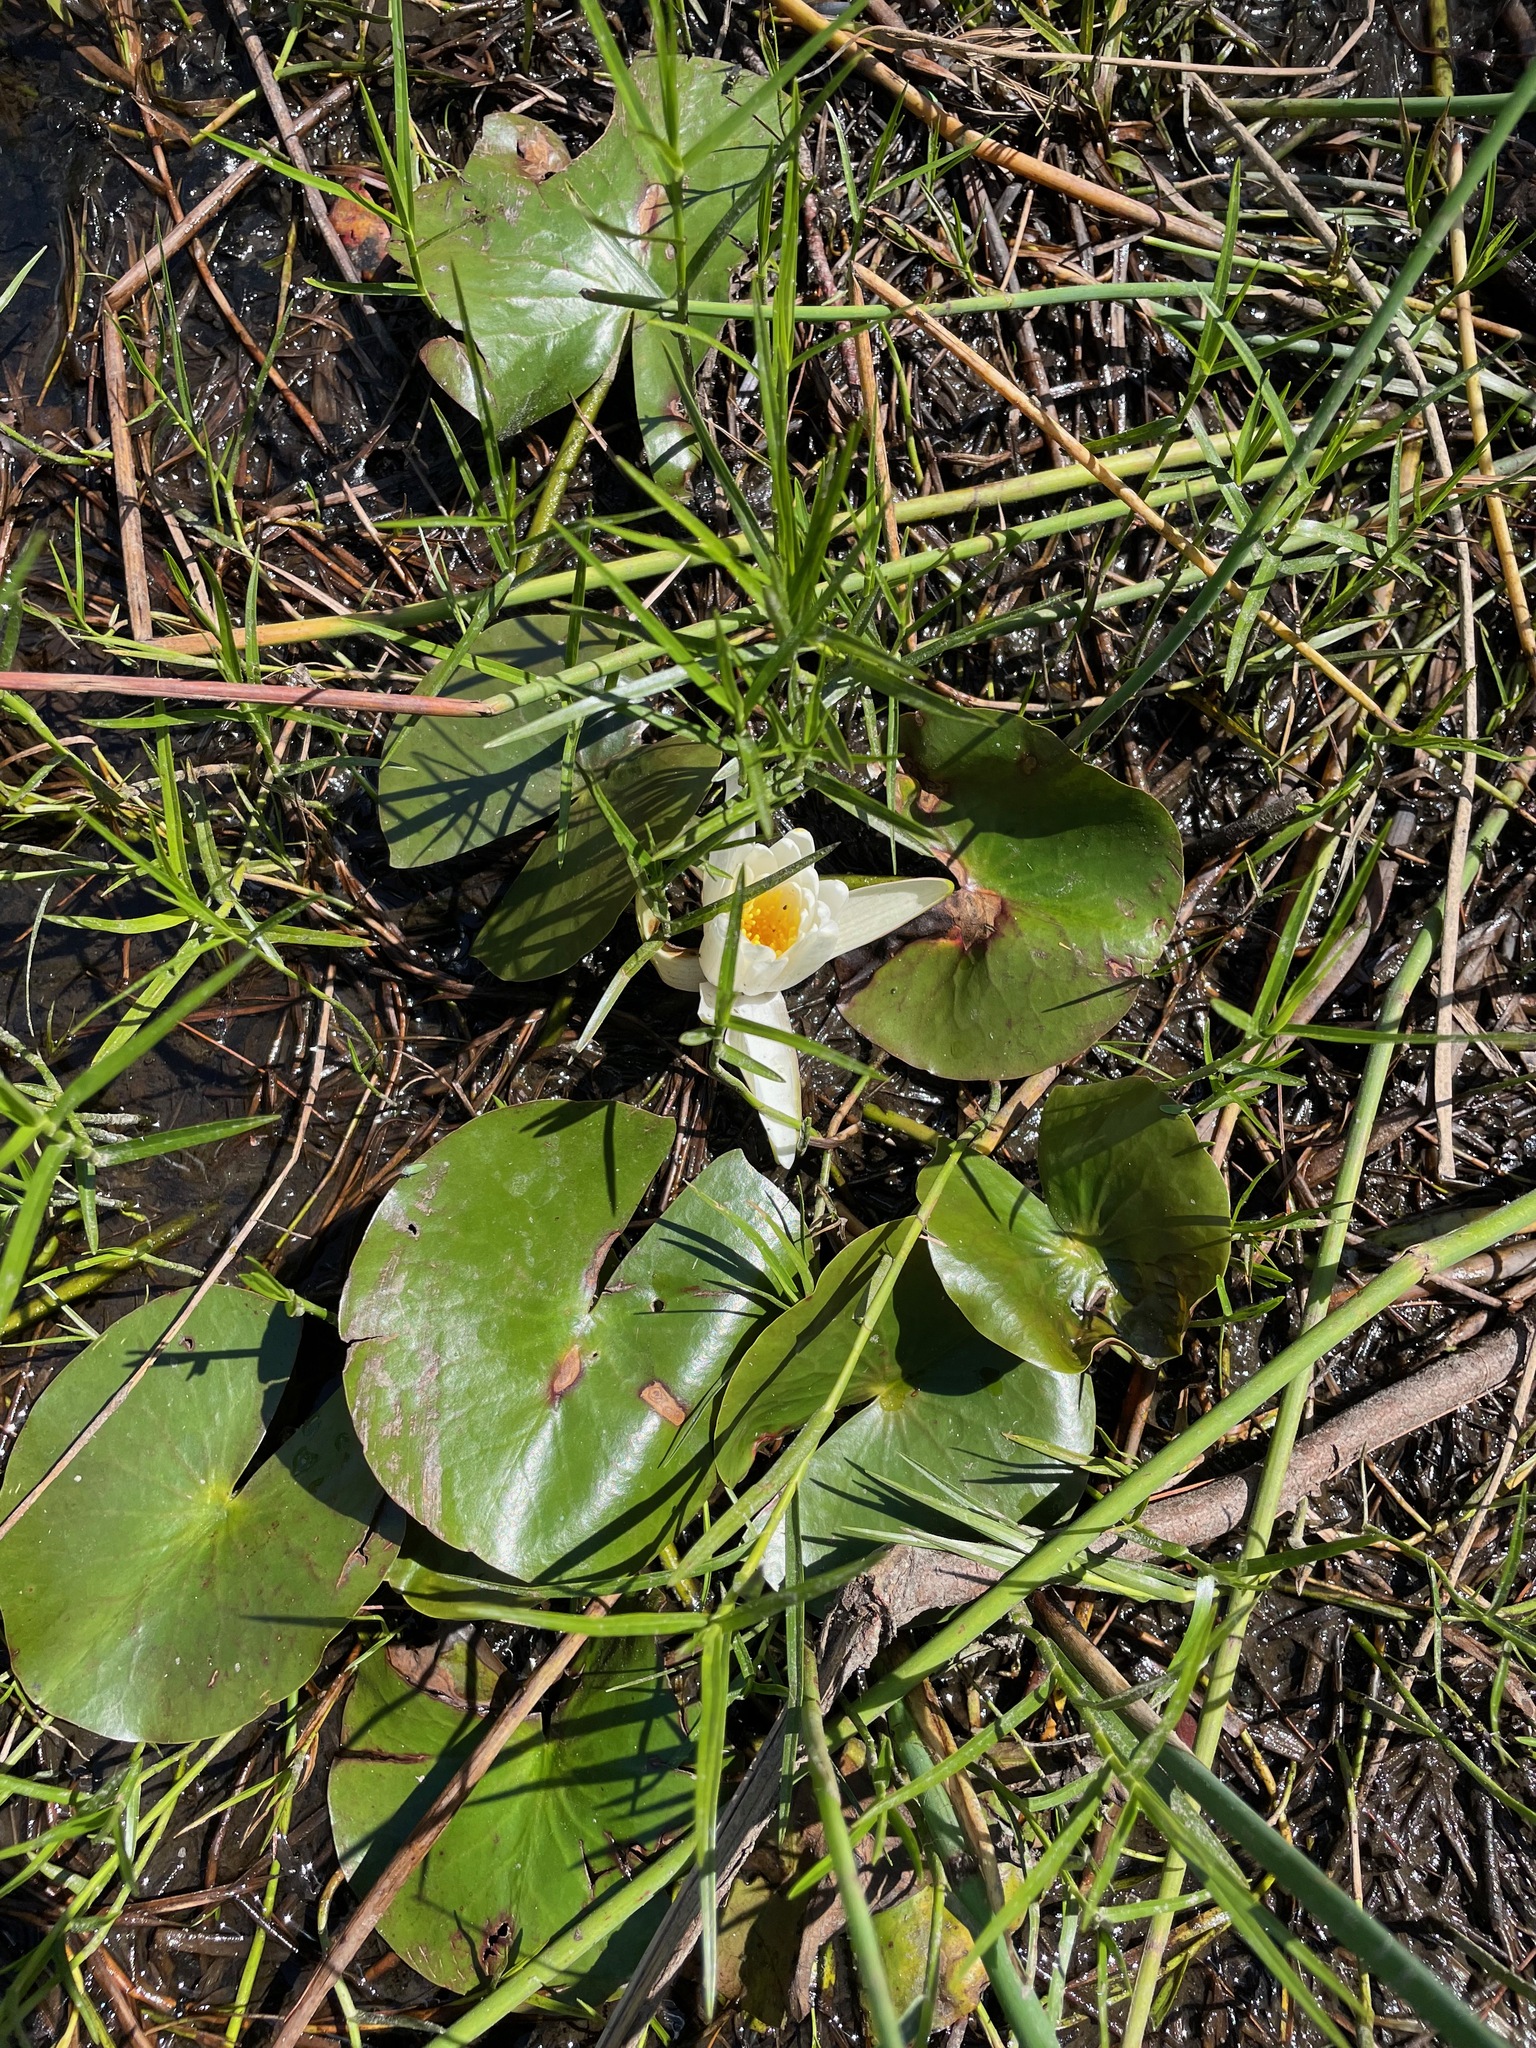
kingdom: Plantae
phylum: Tracheophyta
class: Magnoliopsida
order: Nymphaeales
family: Nymphaeaceae
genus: Nymphaea
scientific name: Nymphaea odorata
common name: Fragrant water-lily
